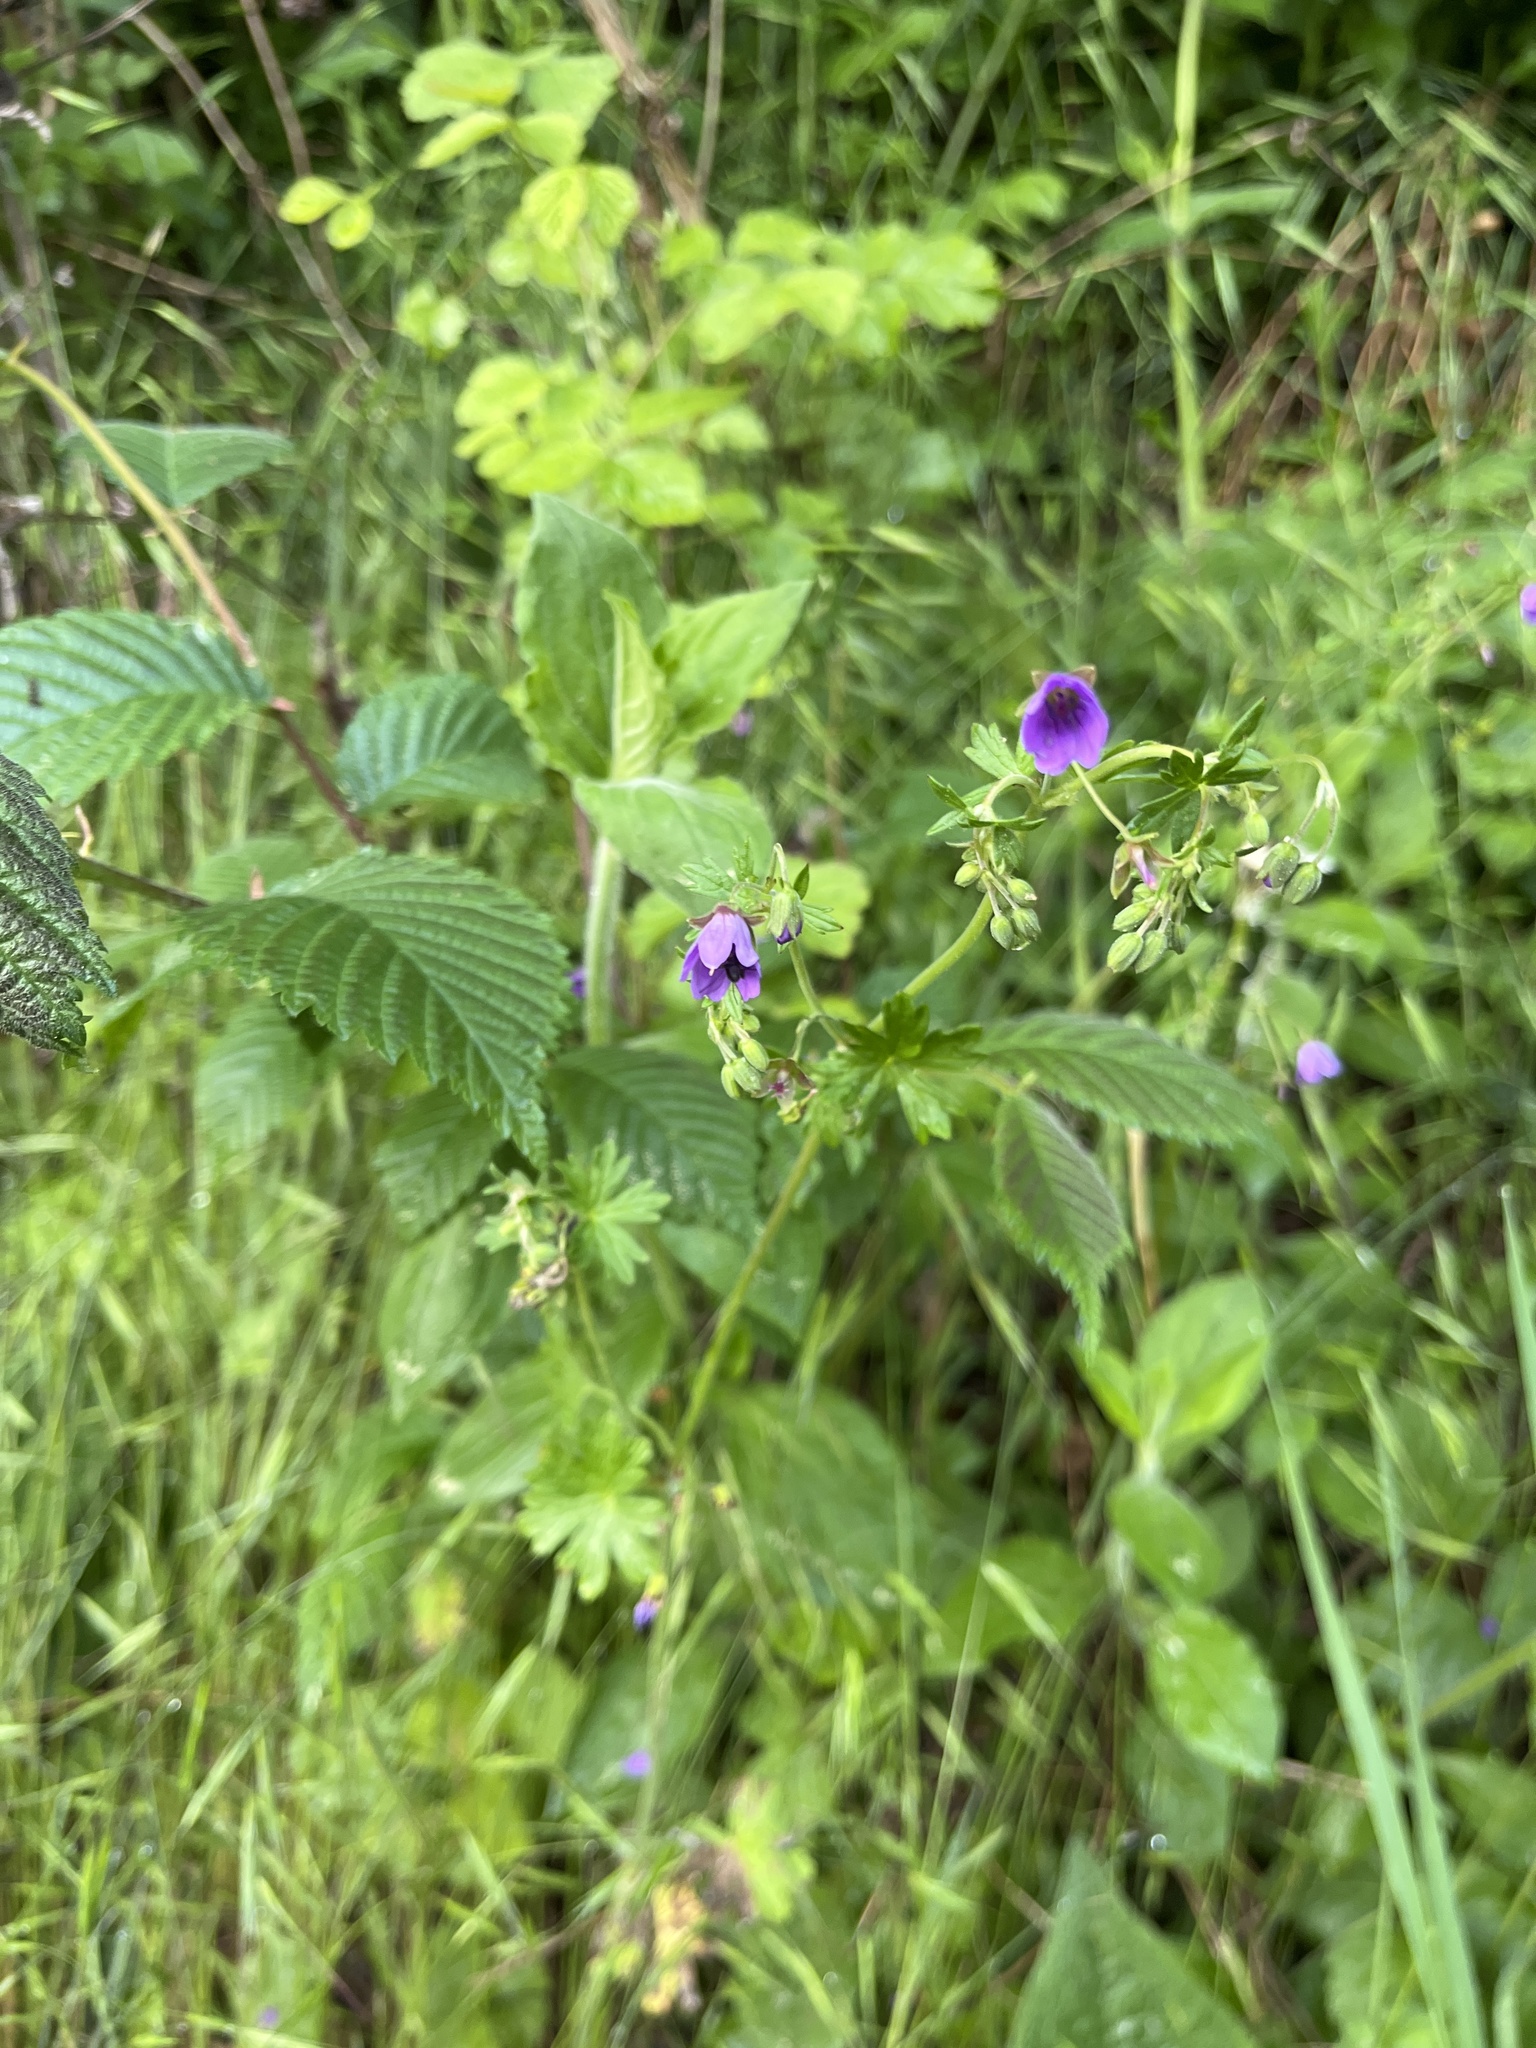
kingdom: Plantae
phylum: Tracheophyta
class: Magnoliopsida
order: Geraniales
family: Geraniaceae
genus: Geranium
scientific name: Geranium pyrenaicum
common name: Hedgerow crane's-bill
